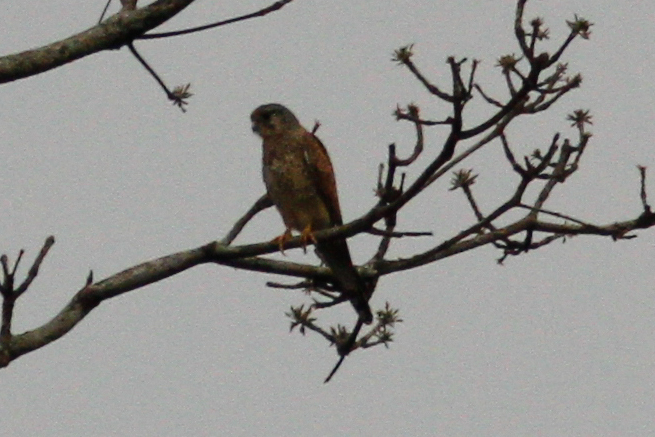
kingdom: Animalia
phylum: Chordata
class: Aves
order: Falconiformes
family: Falconidae
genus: Falco
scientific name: Falco tinnunculus
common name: Common kestrel
